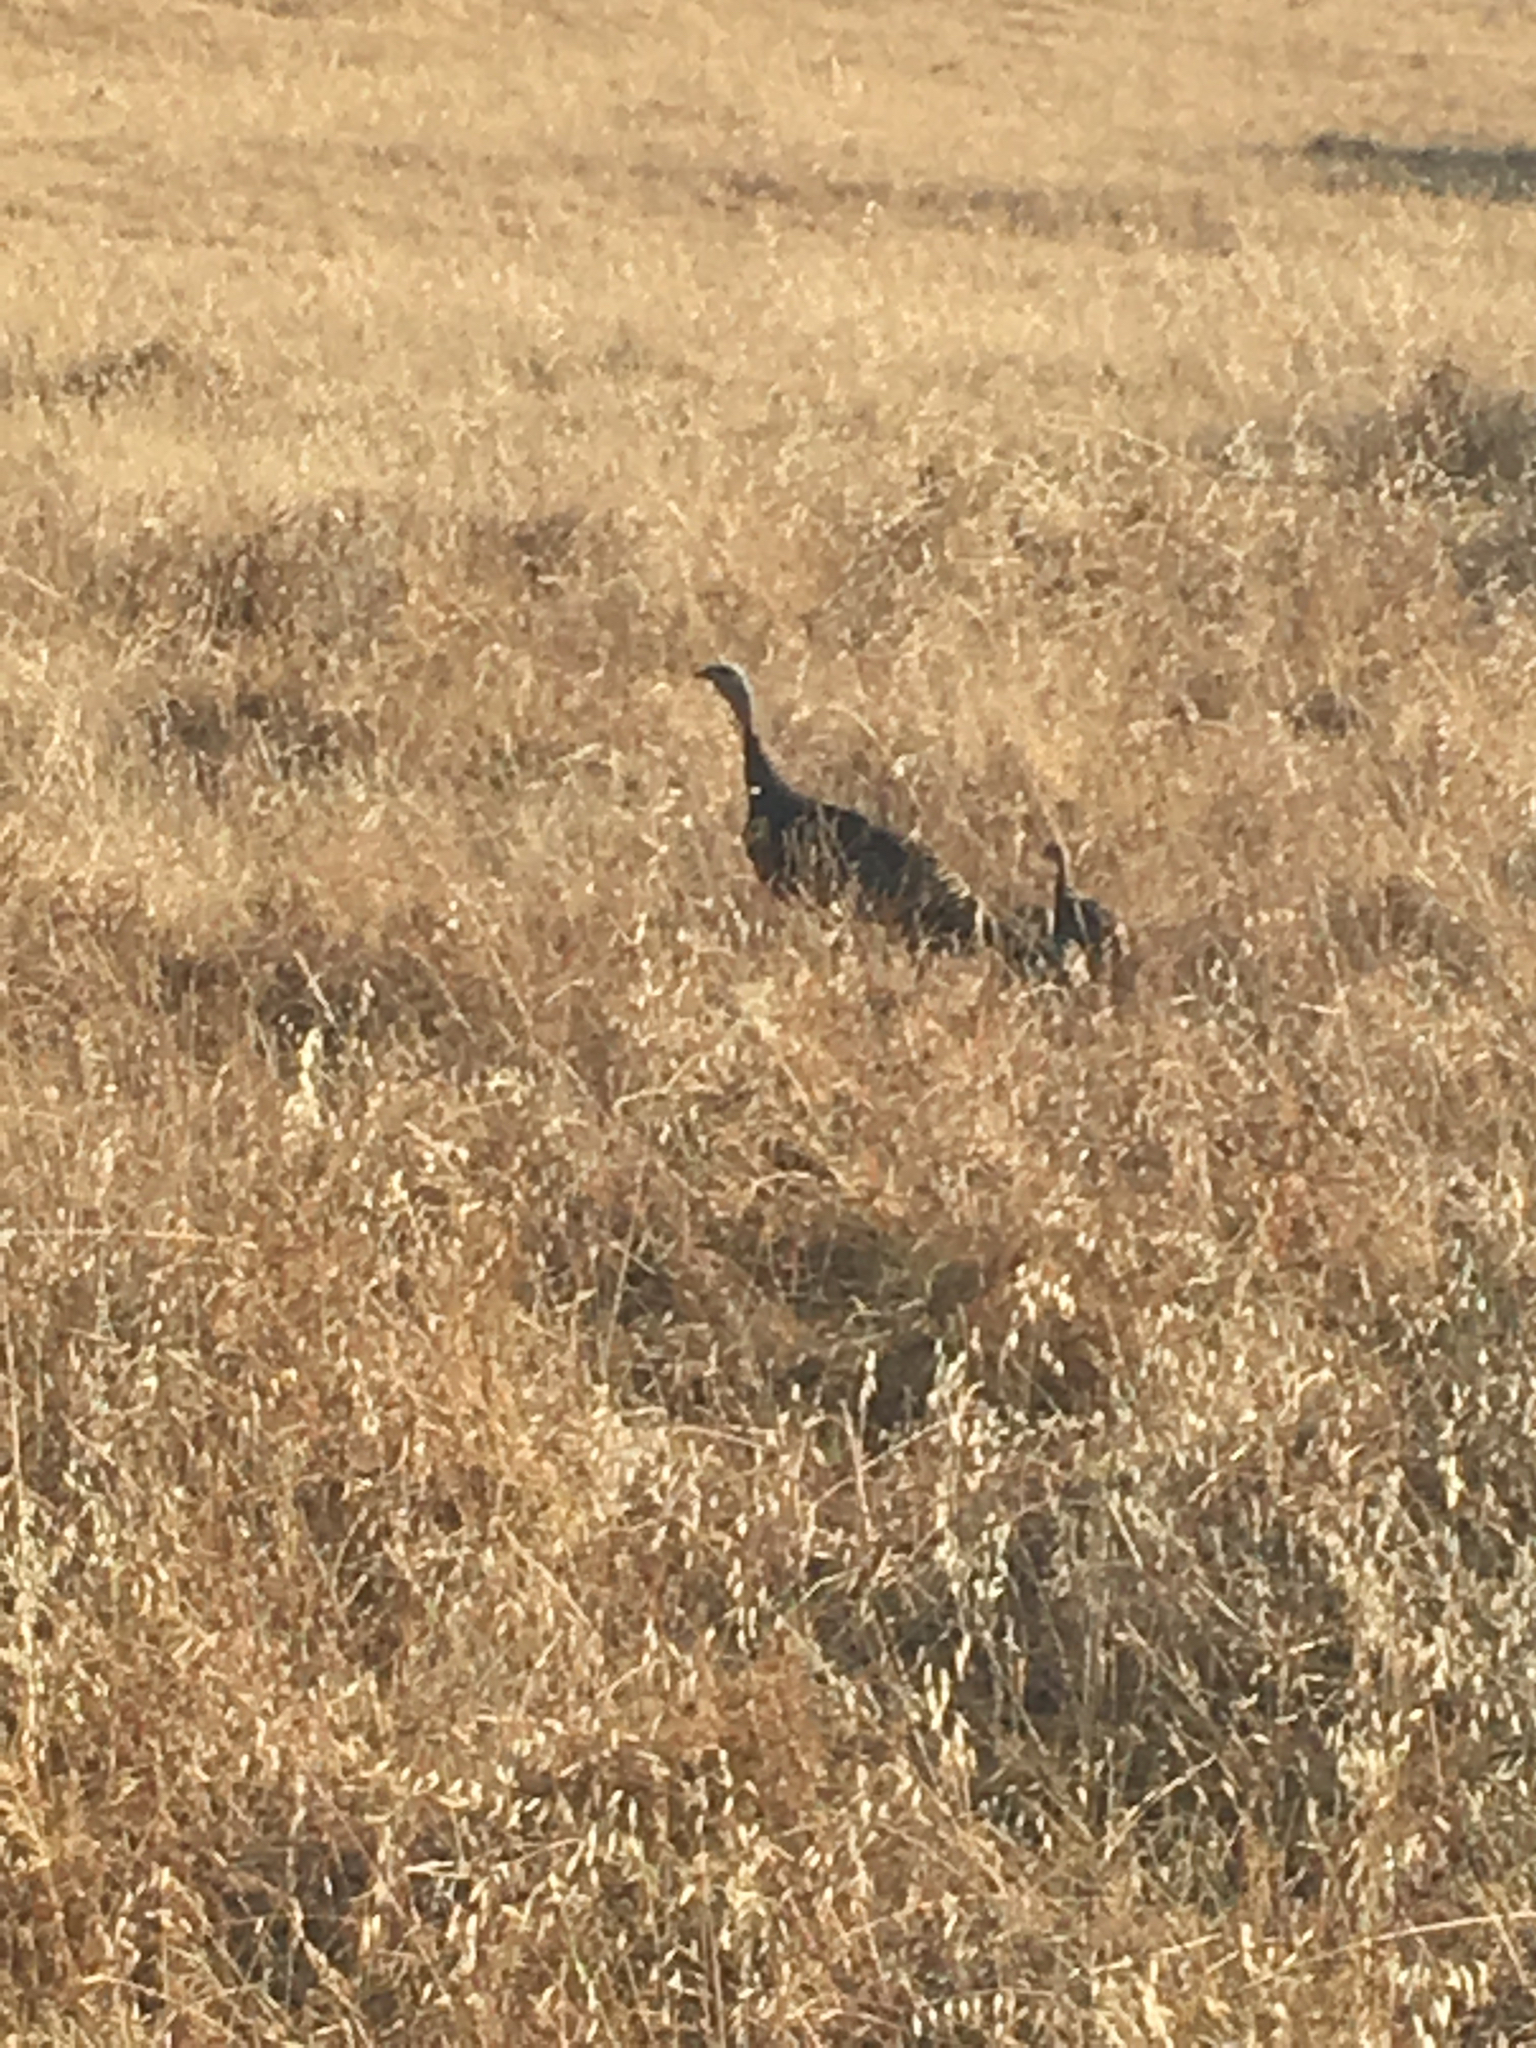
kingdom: Animalia
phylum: Chordata
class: Aves
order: Galliformes
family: Phasianidae
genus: Meleagris
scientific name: Meleagris gallopavo
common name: Wild turkey
